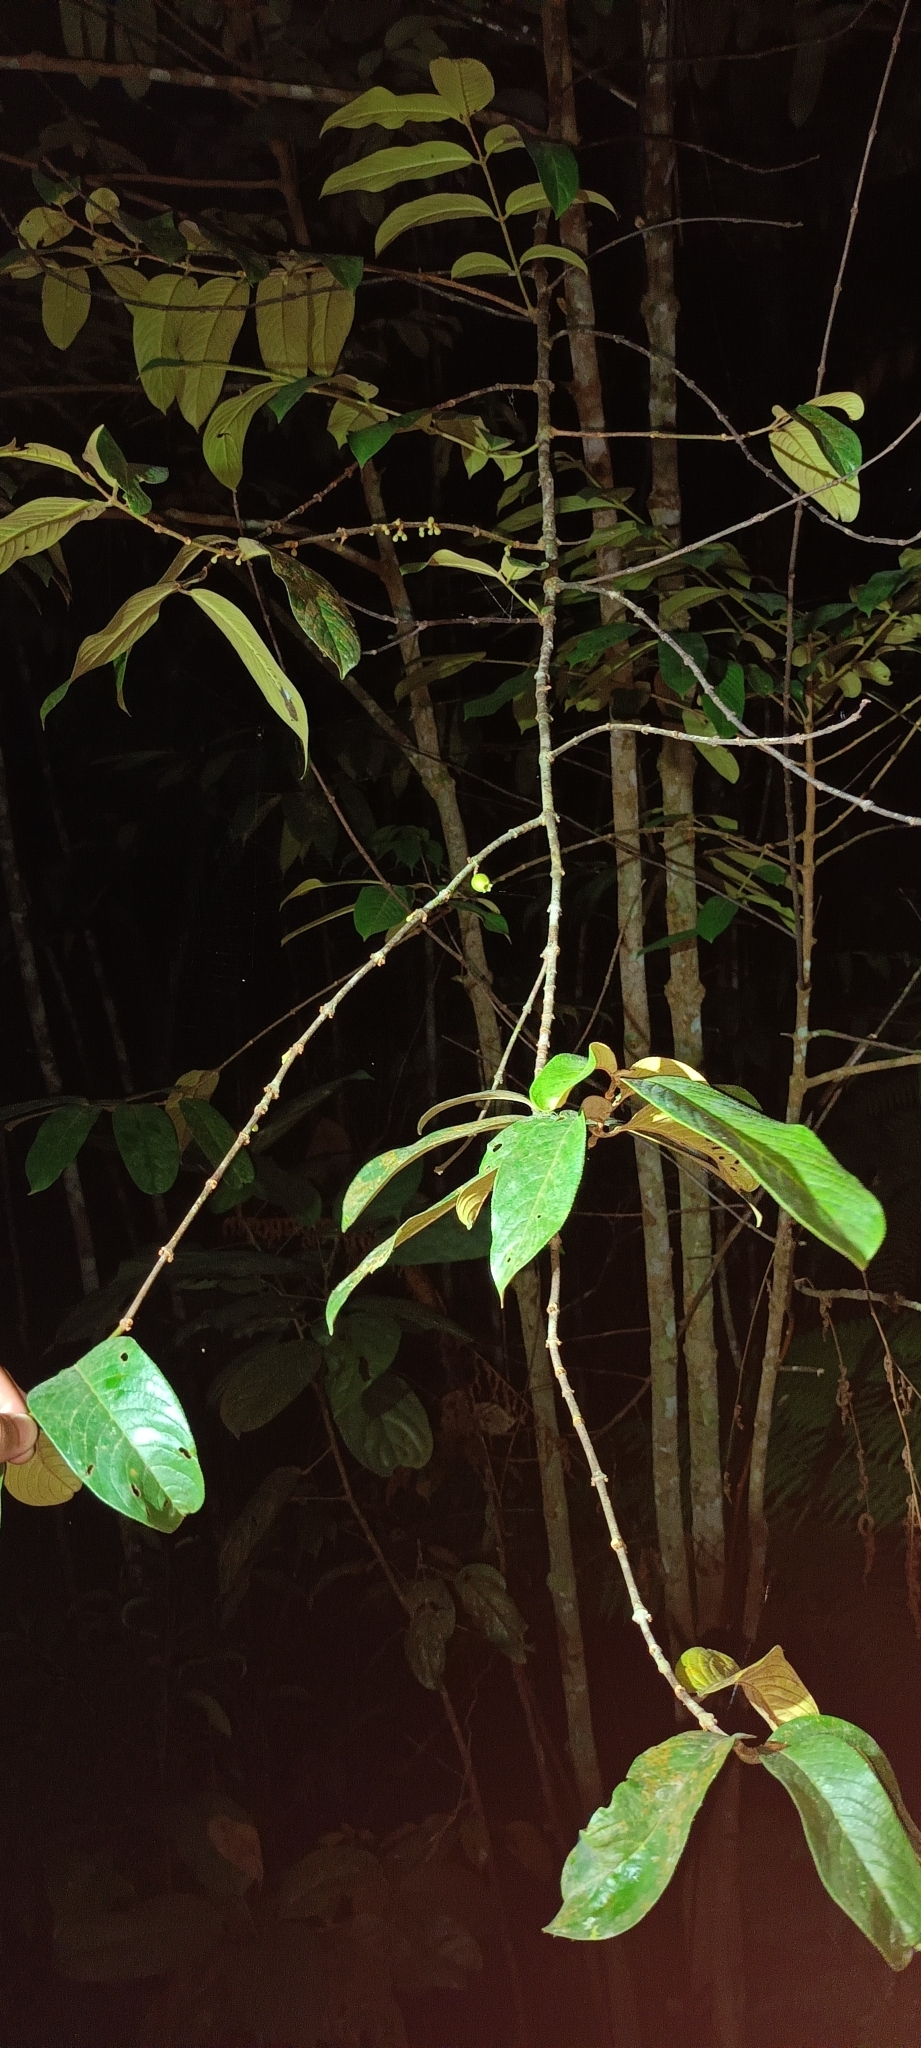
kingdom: Plantae
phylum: Tracheophyta
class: Magnoliopsida
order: Malpighiales
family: Rhizophoraceae
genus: Pellacalyx
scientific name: Pellacalyx axillaris
